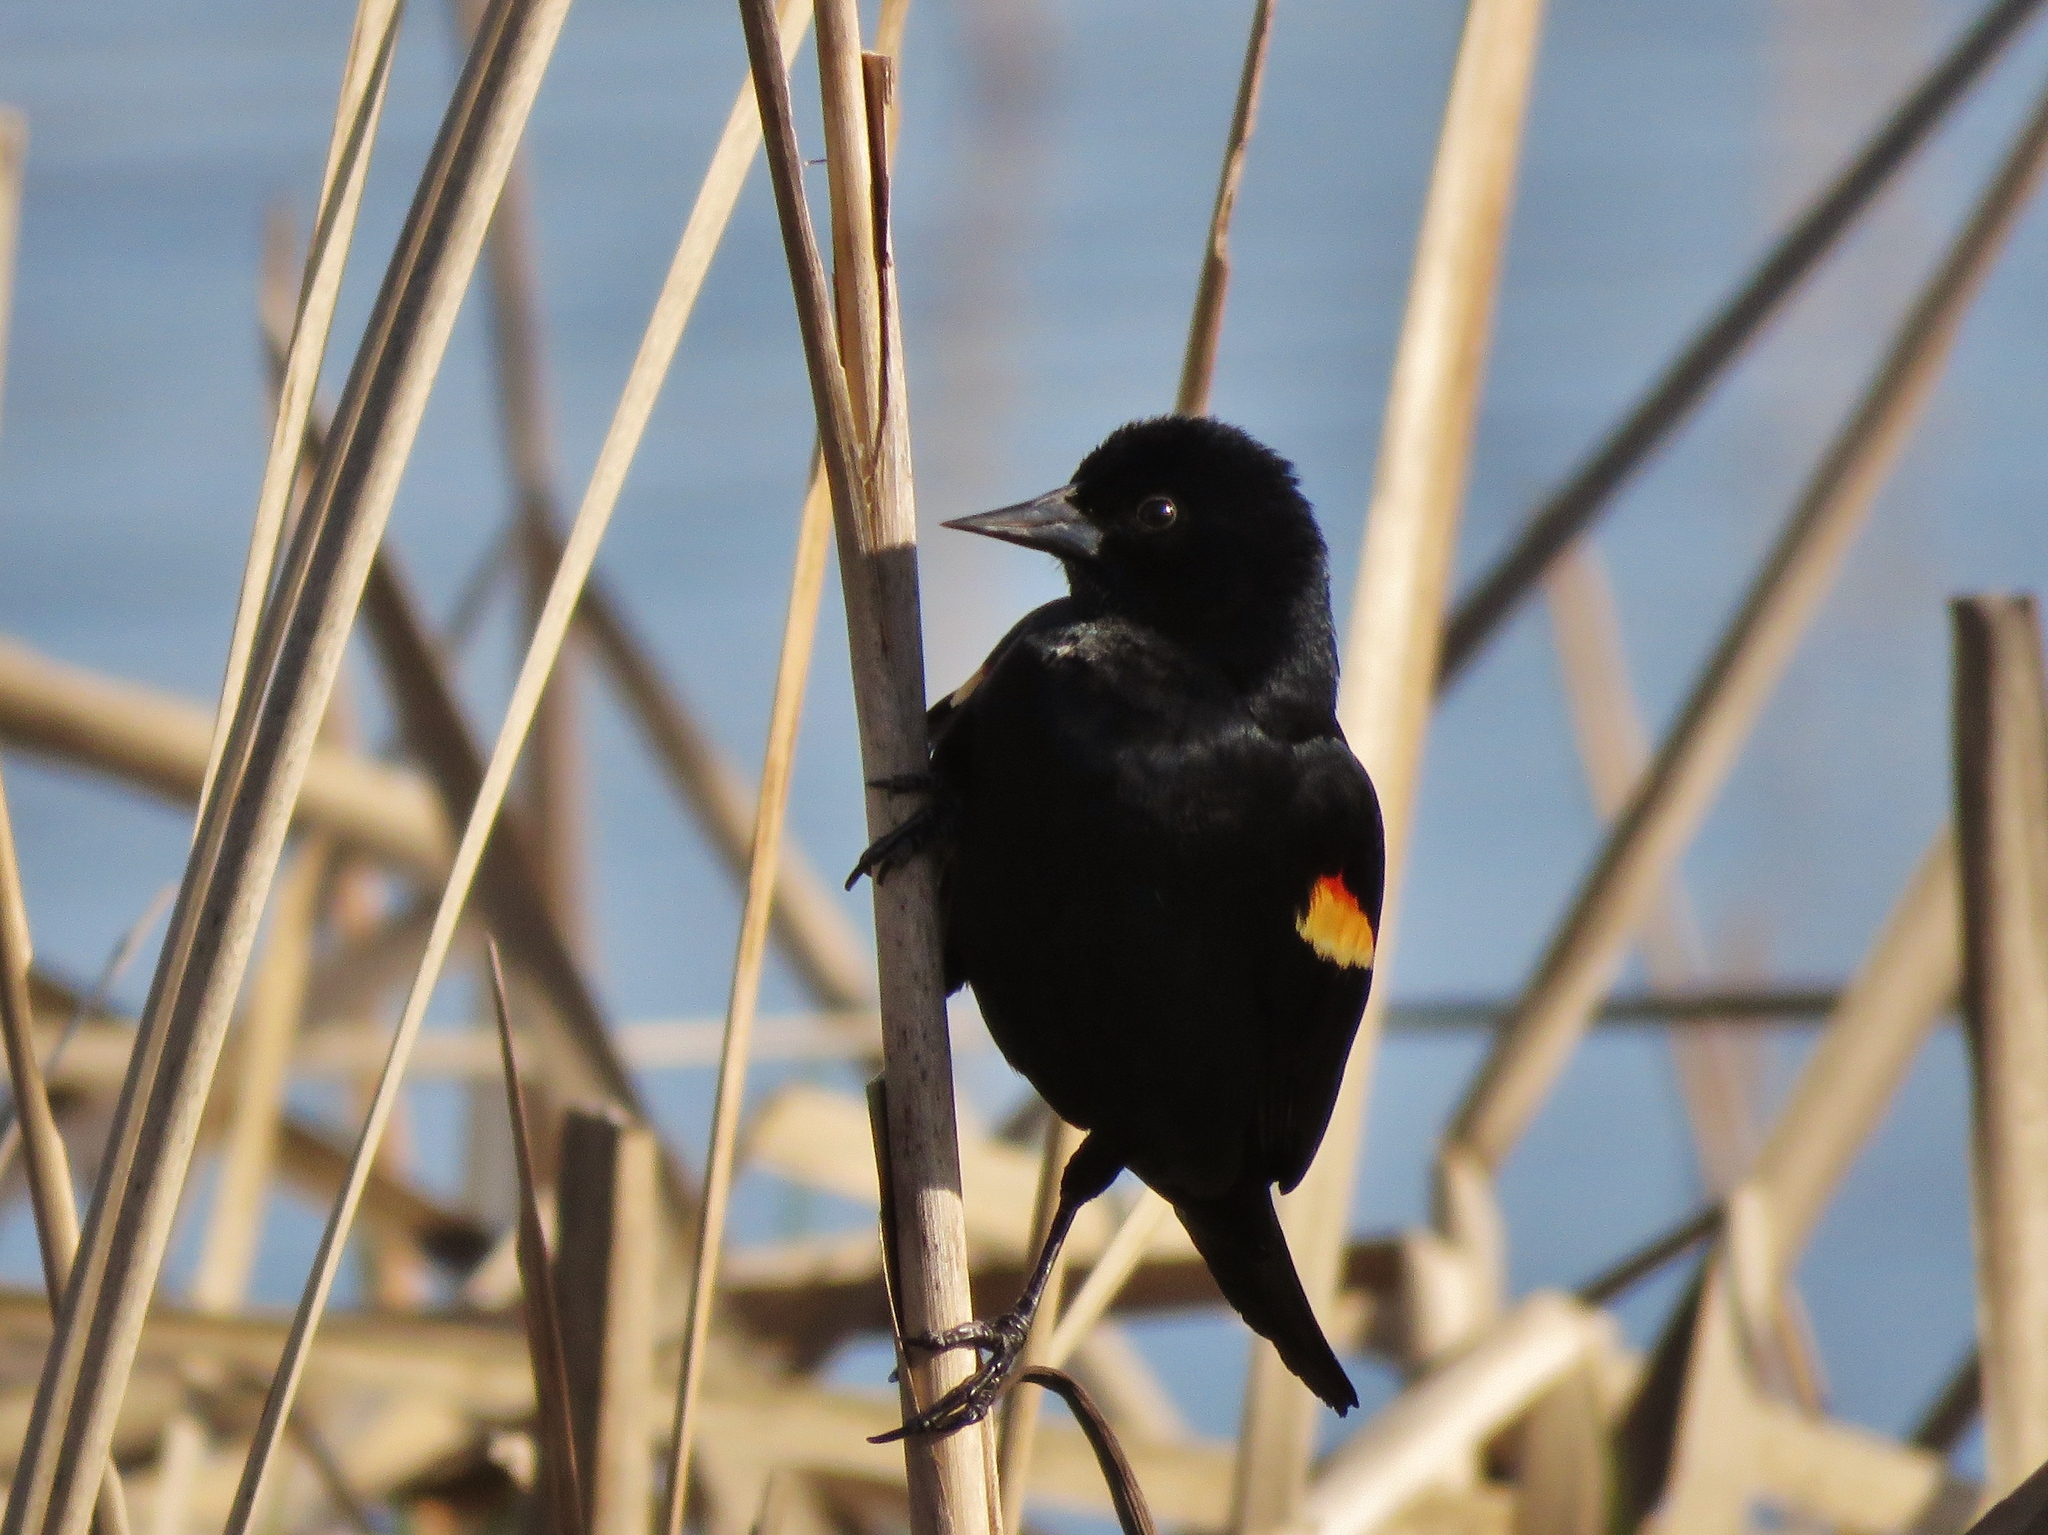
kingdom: Animalia
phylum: Chordata
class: Aves
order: Passeriformes
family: Icteridae
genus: Agelaius
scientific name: Agelaius phoeniceus
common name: Red-winged blackbird
